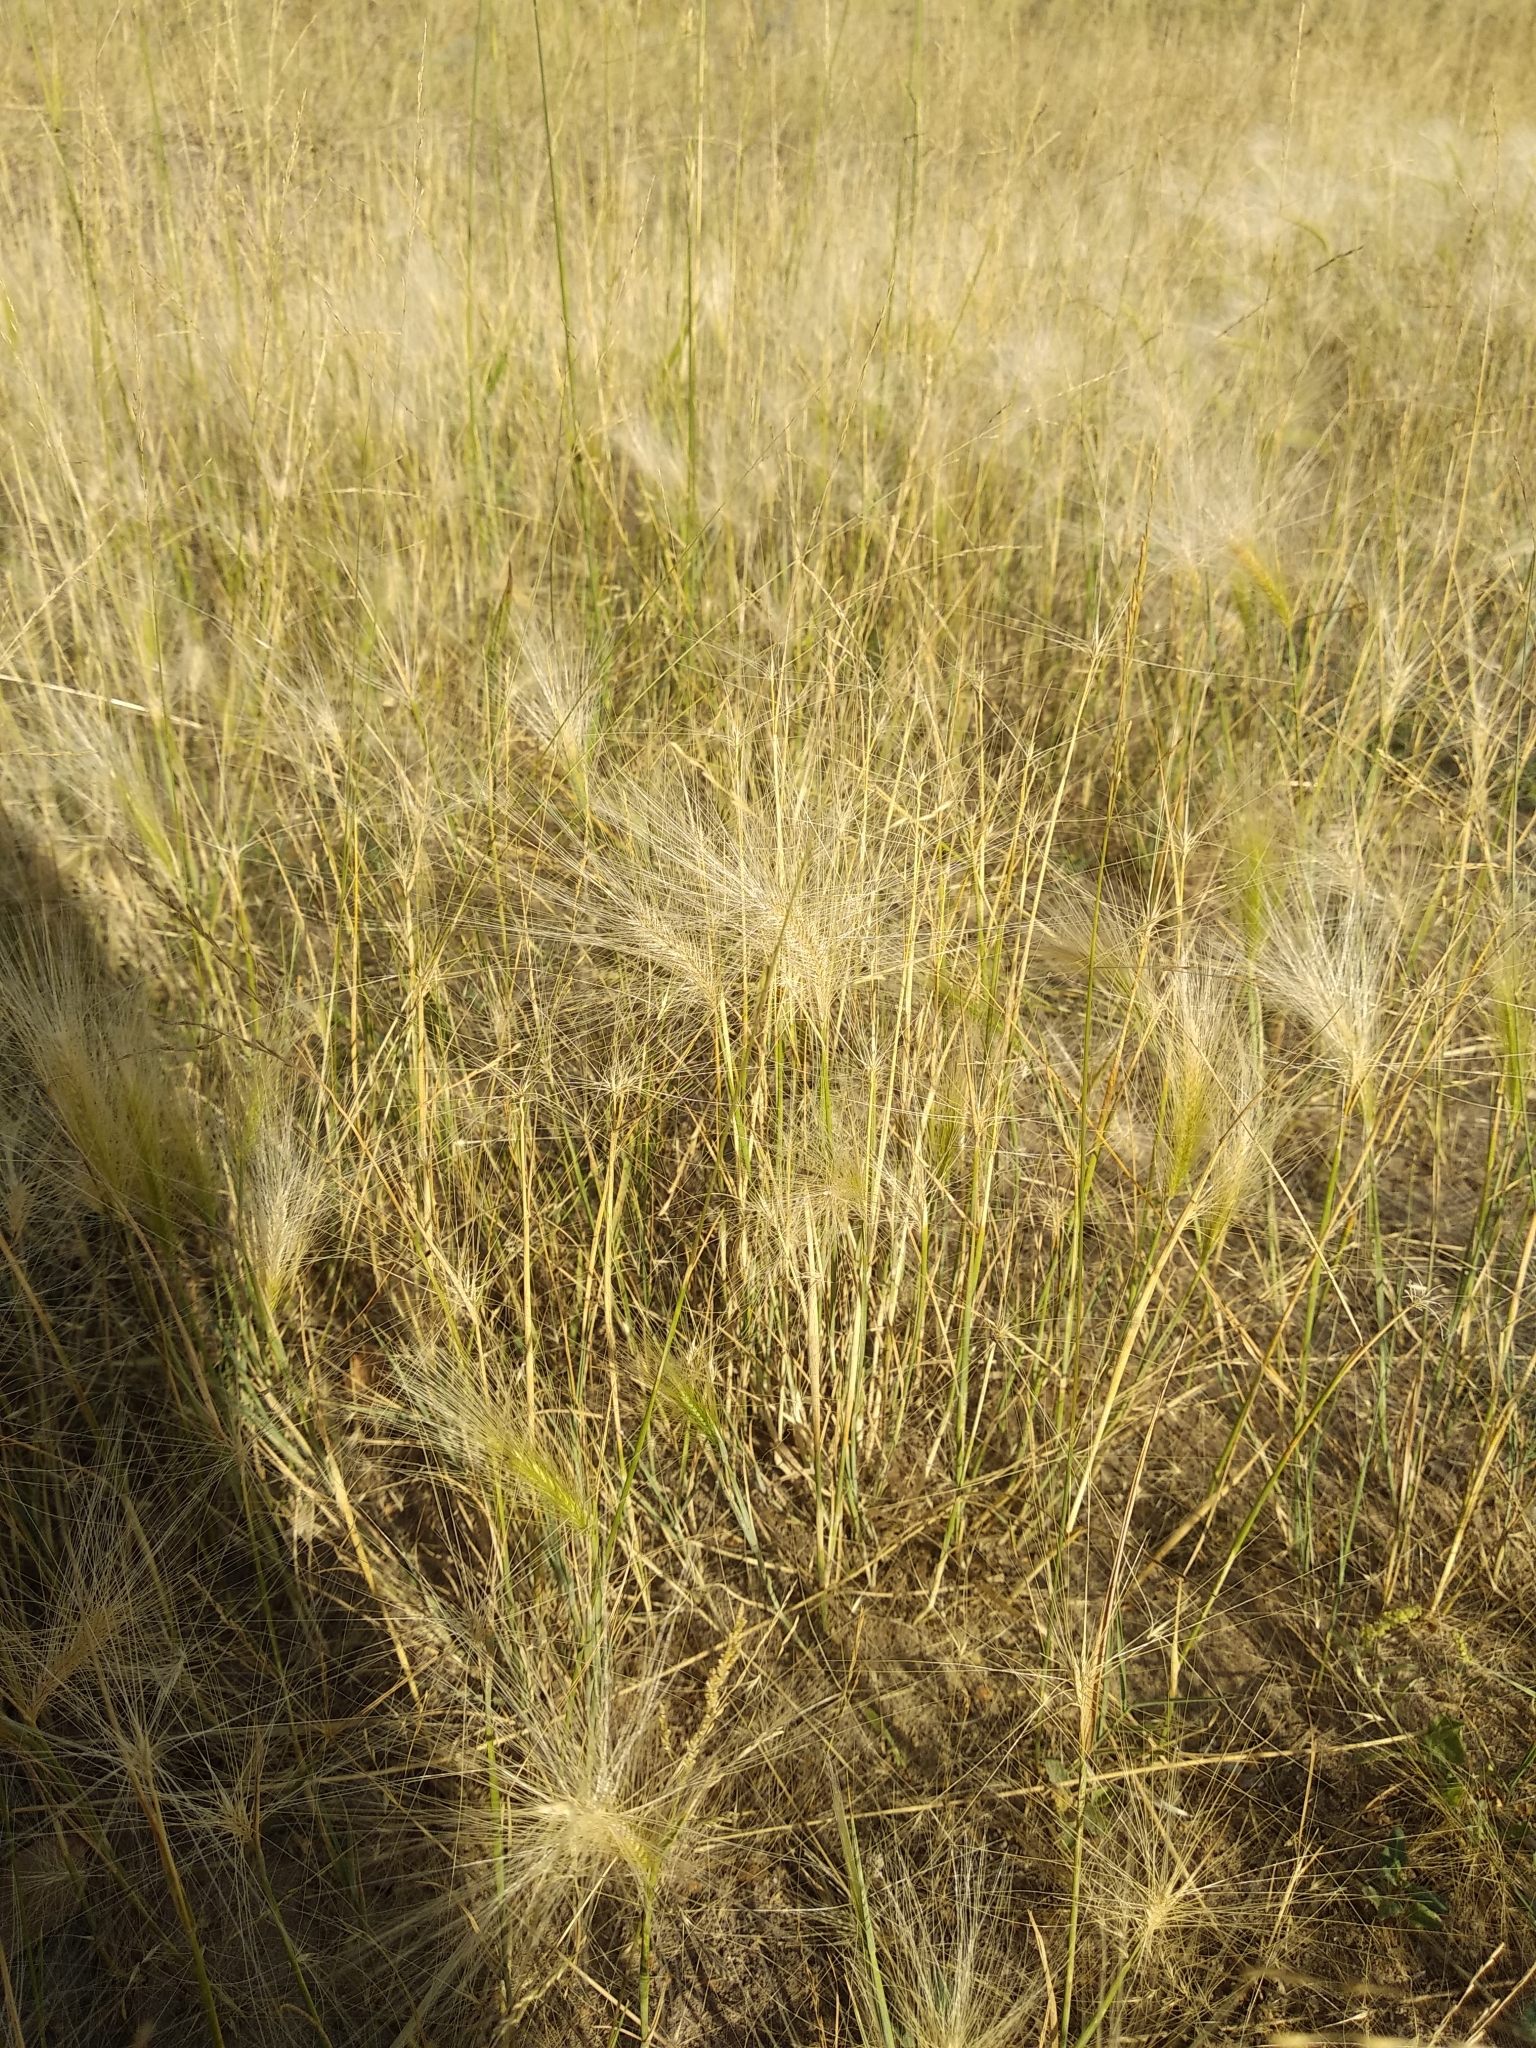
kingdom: Plantae
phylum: Tracheophyta
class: Liliopsida
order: Poales
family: Poaceae
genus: Hordeum
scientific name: Hordeum jubatum
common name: Foxtail barley
